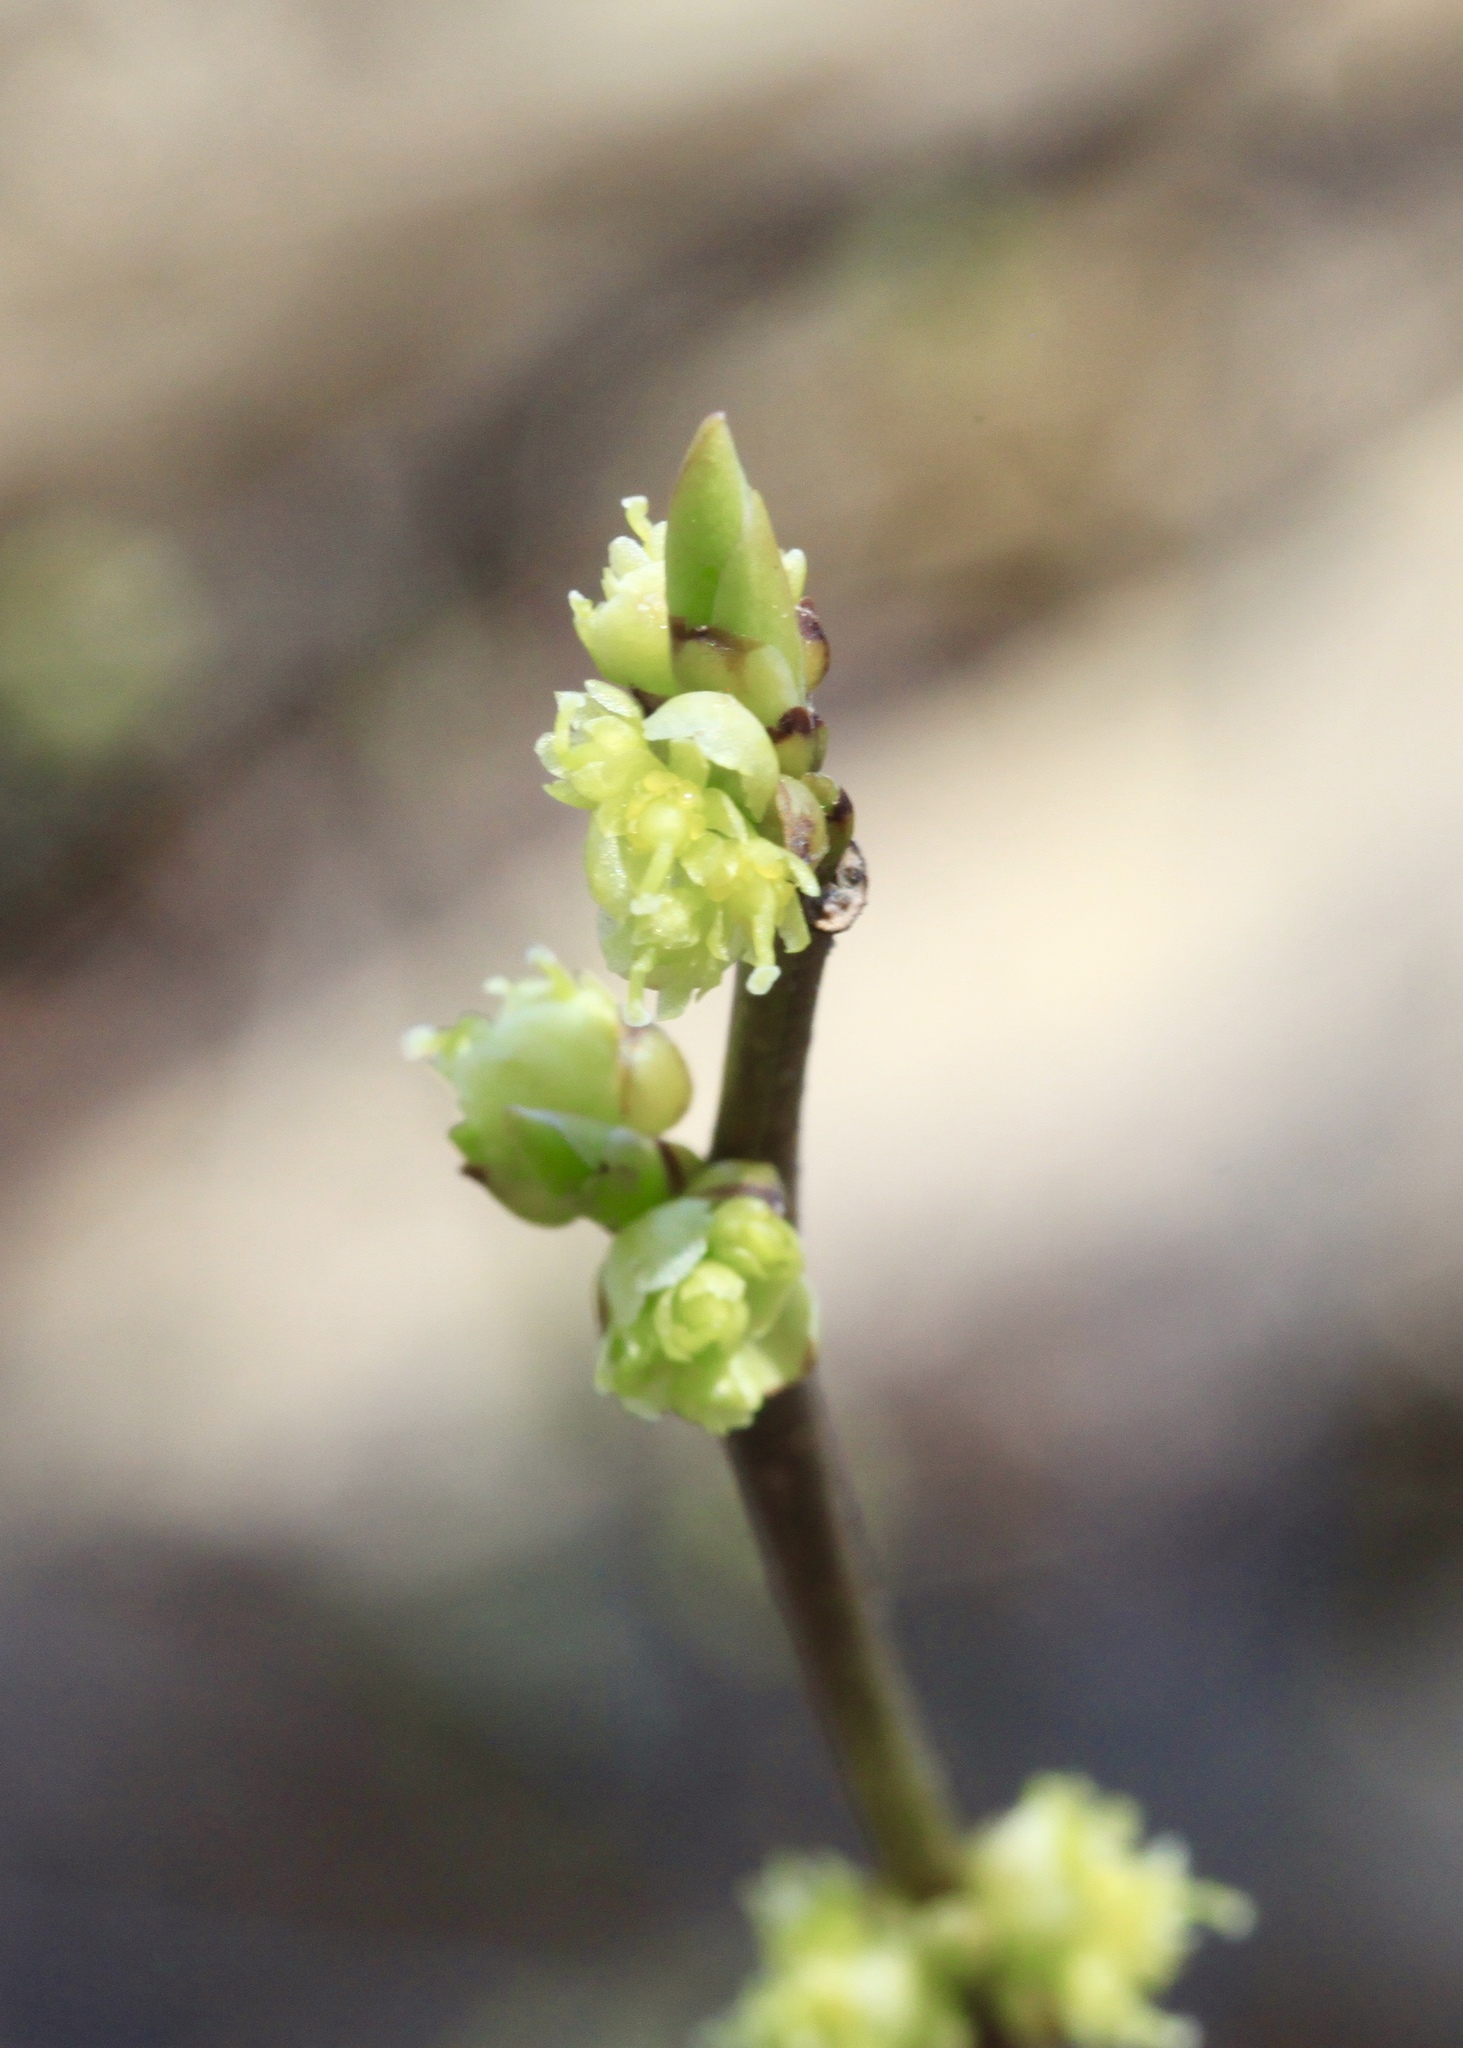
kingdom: Plantae
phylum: Tracheophyta
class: Magnoliopsida
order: Laurales
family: Lauraceae
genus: Lindera
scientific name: Lindera benzoin
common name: Spicebush
